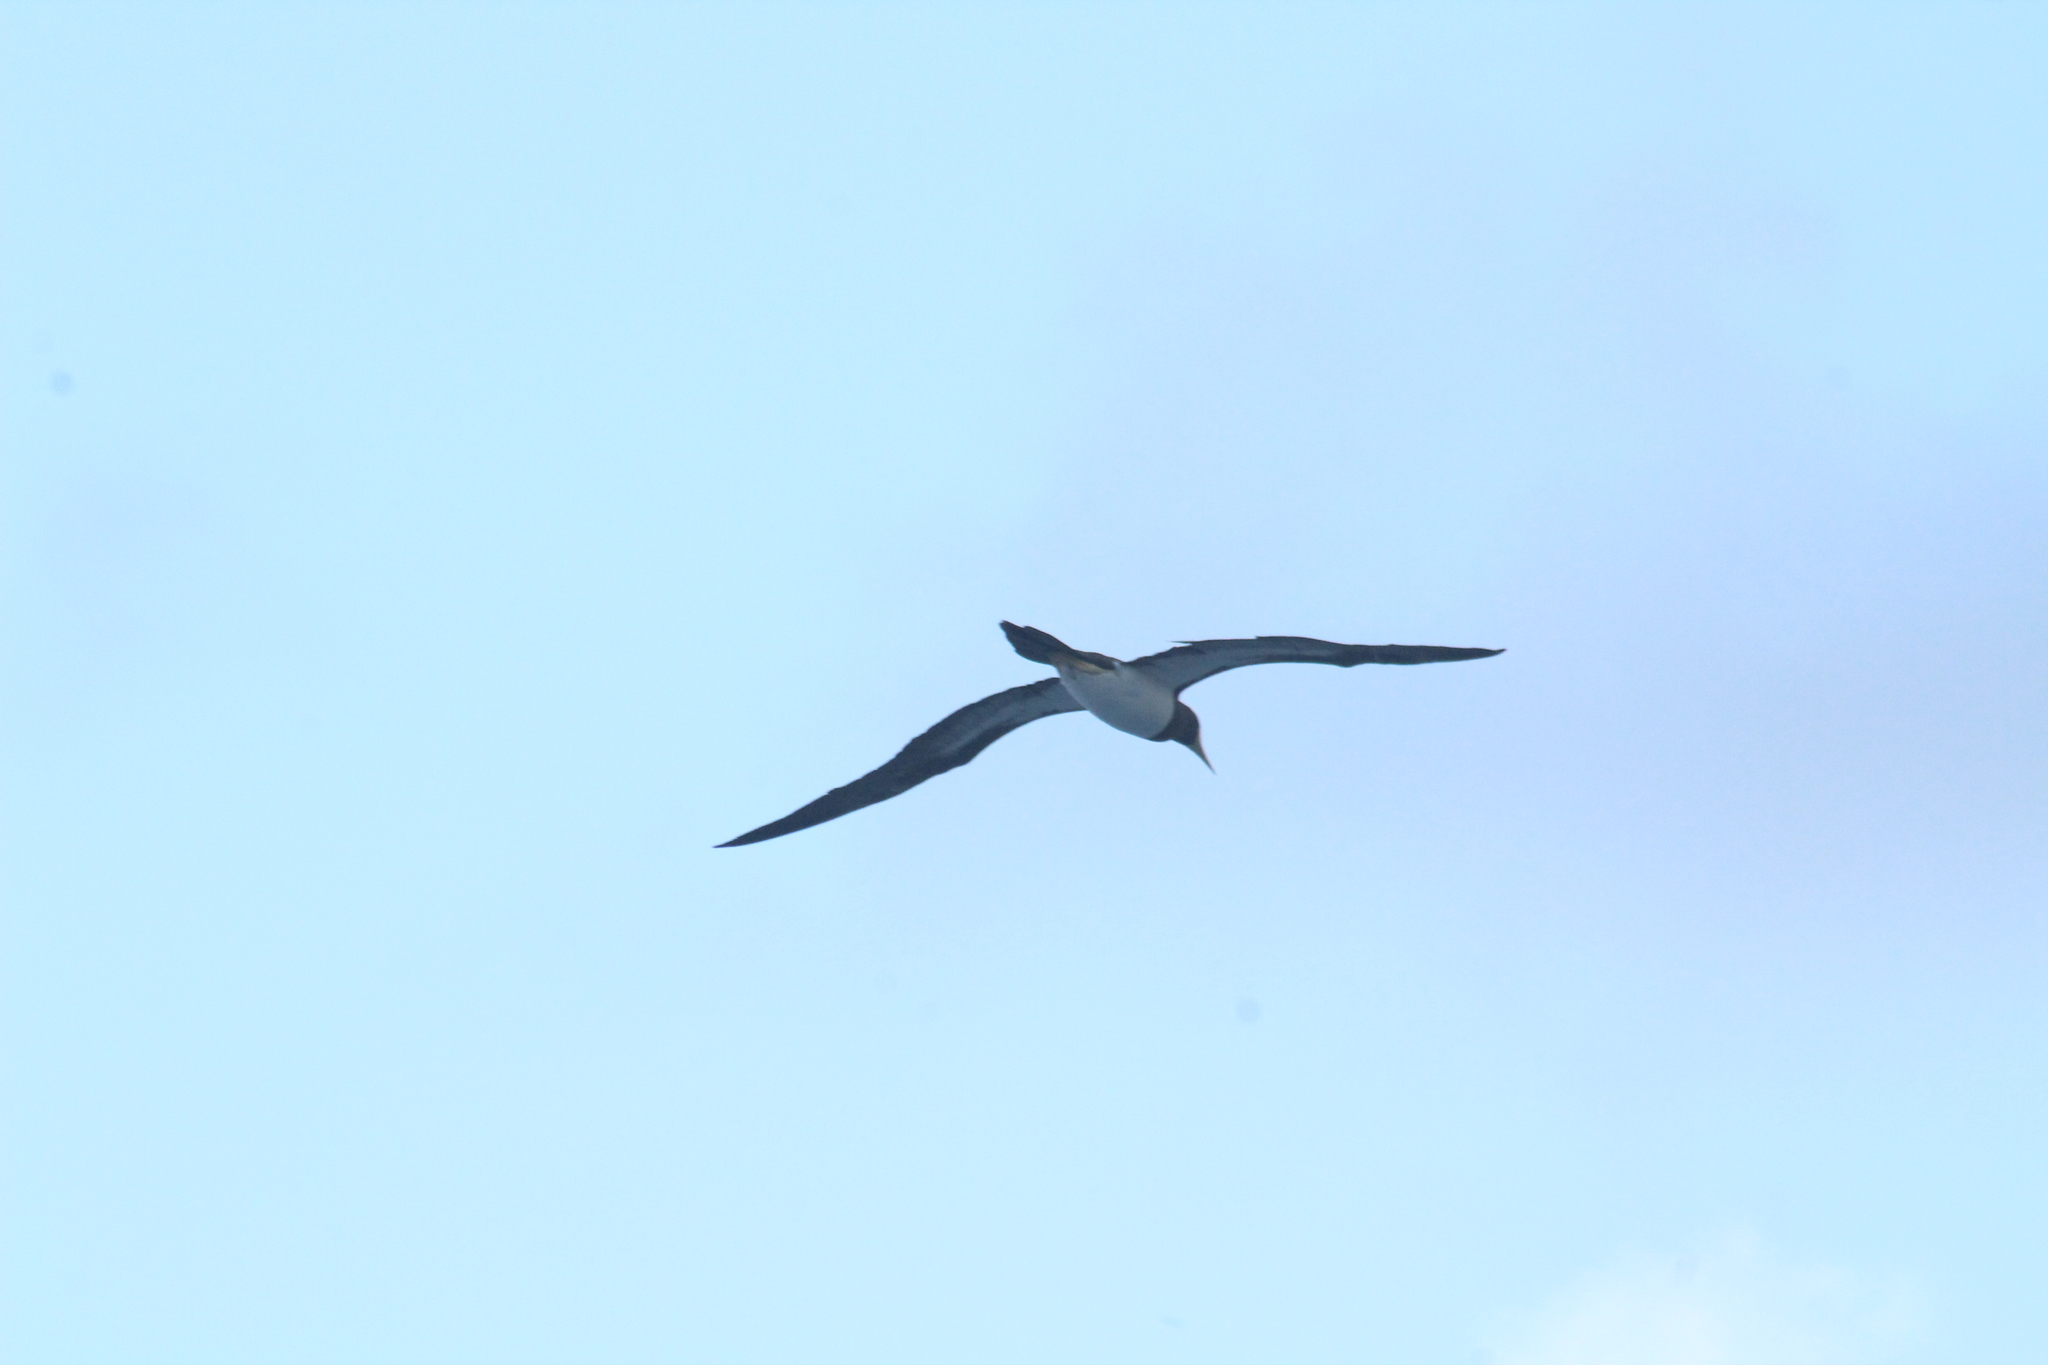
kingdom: Animalia
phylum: Chordata
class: Aves
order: Suliformes
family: Sulidae
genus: Sula
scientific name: Sula leucogaster
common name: Brown booby
